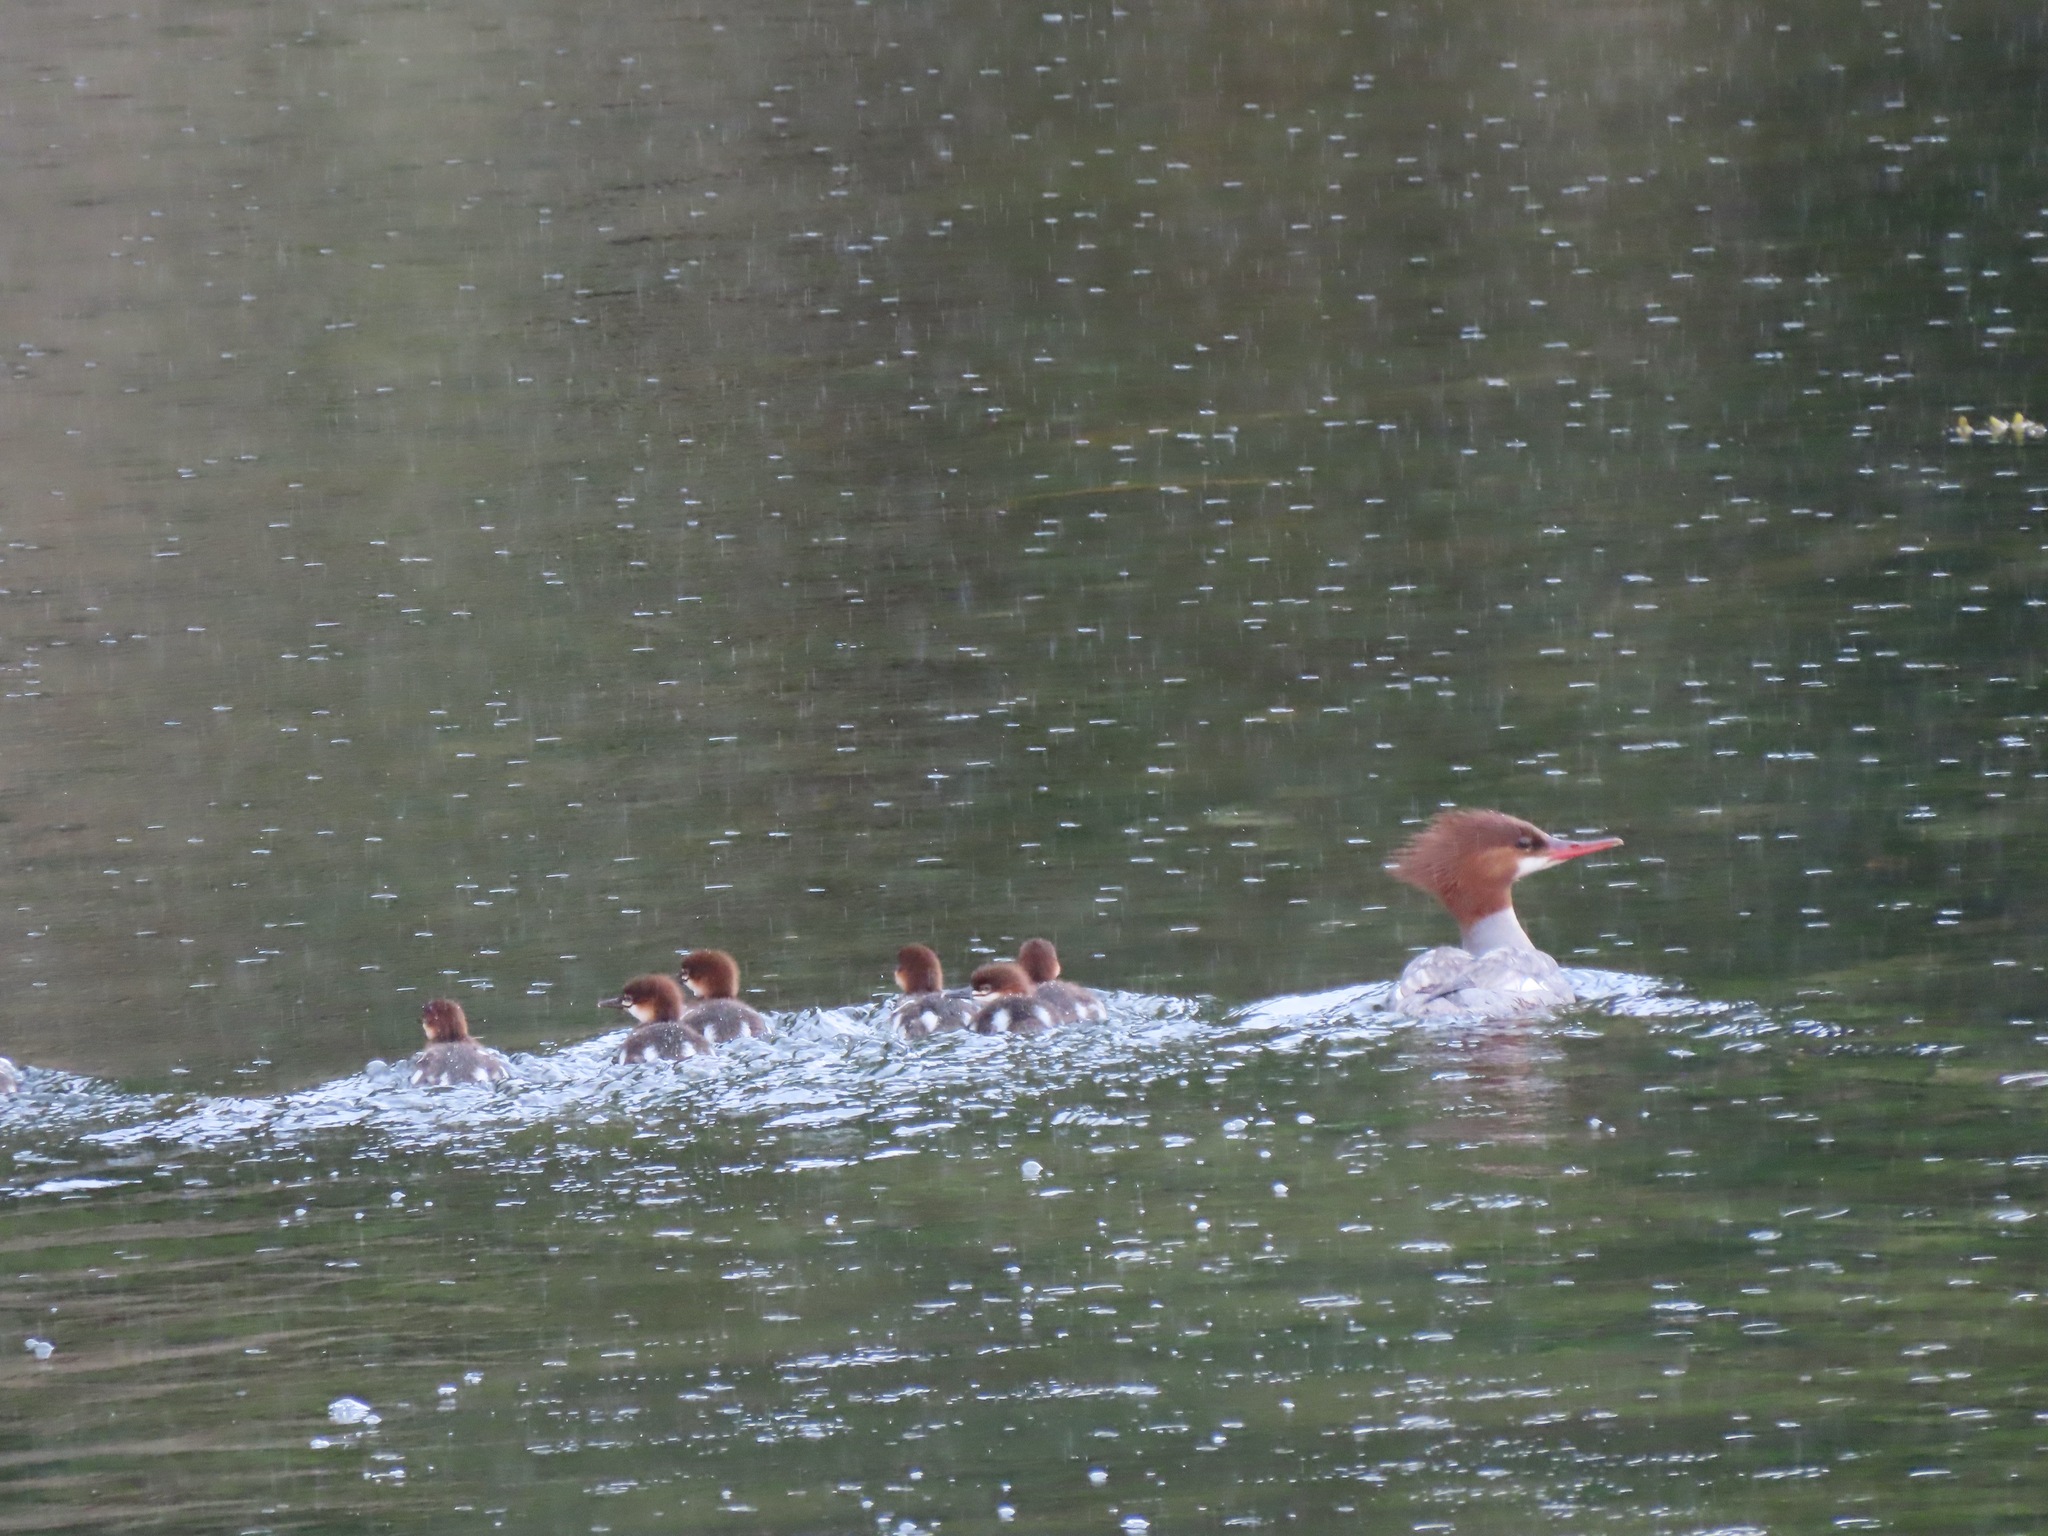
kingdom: Animalia
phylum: Chordata
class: Aves
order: Anseriformes
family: Anatidae
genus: Mergus
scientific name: Mergus merganser
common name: Common merganser
